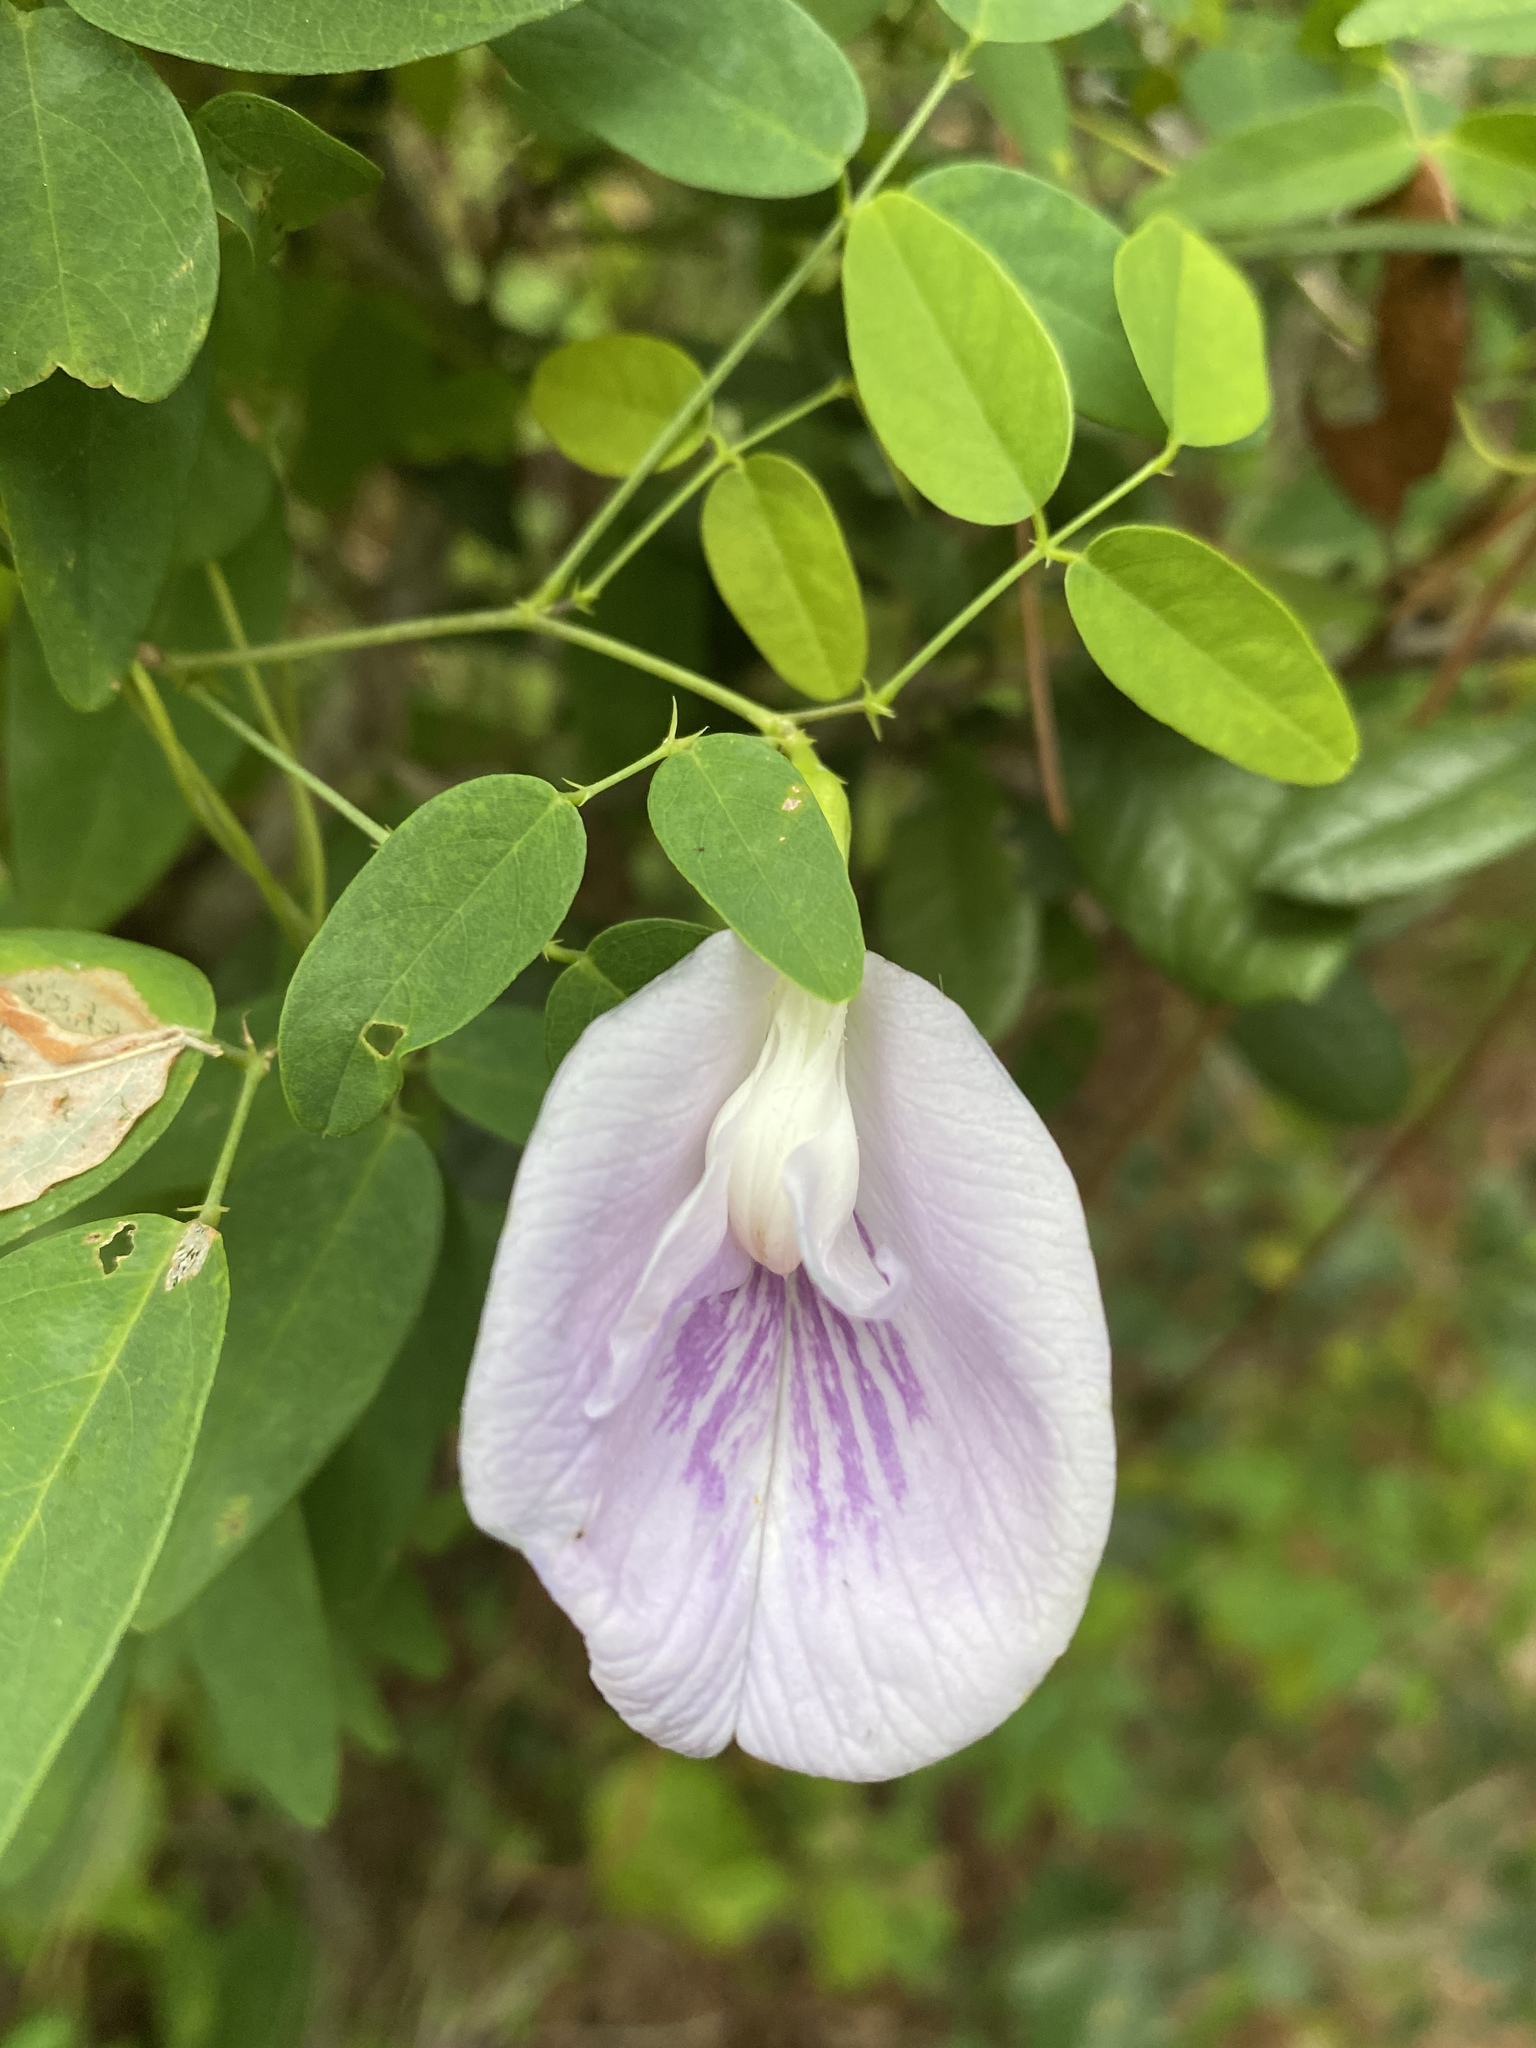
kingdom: Plantae
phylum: Tracheophyta
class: Magnoliopsida
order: Fabales
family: Fabaceae
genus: Clitoria
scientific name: Clitoria mariana
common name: Butterfly-pea
